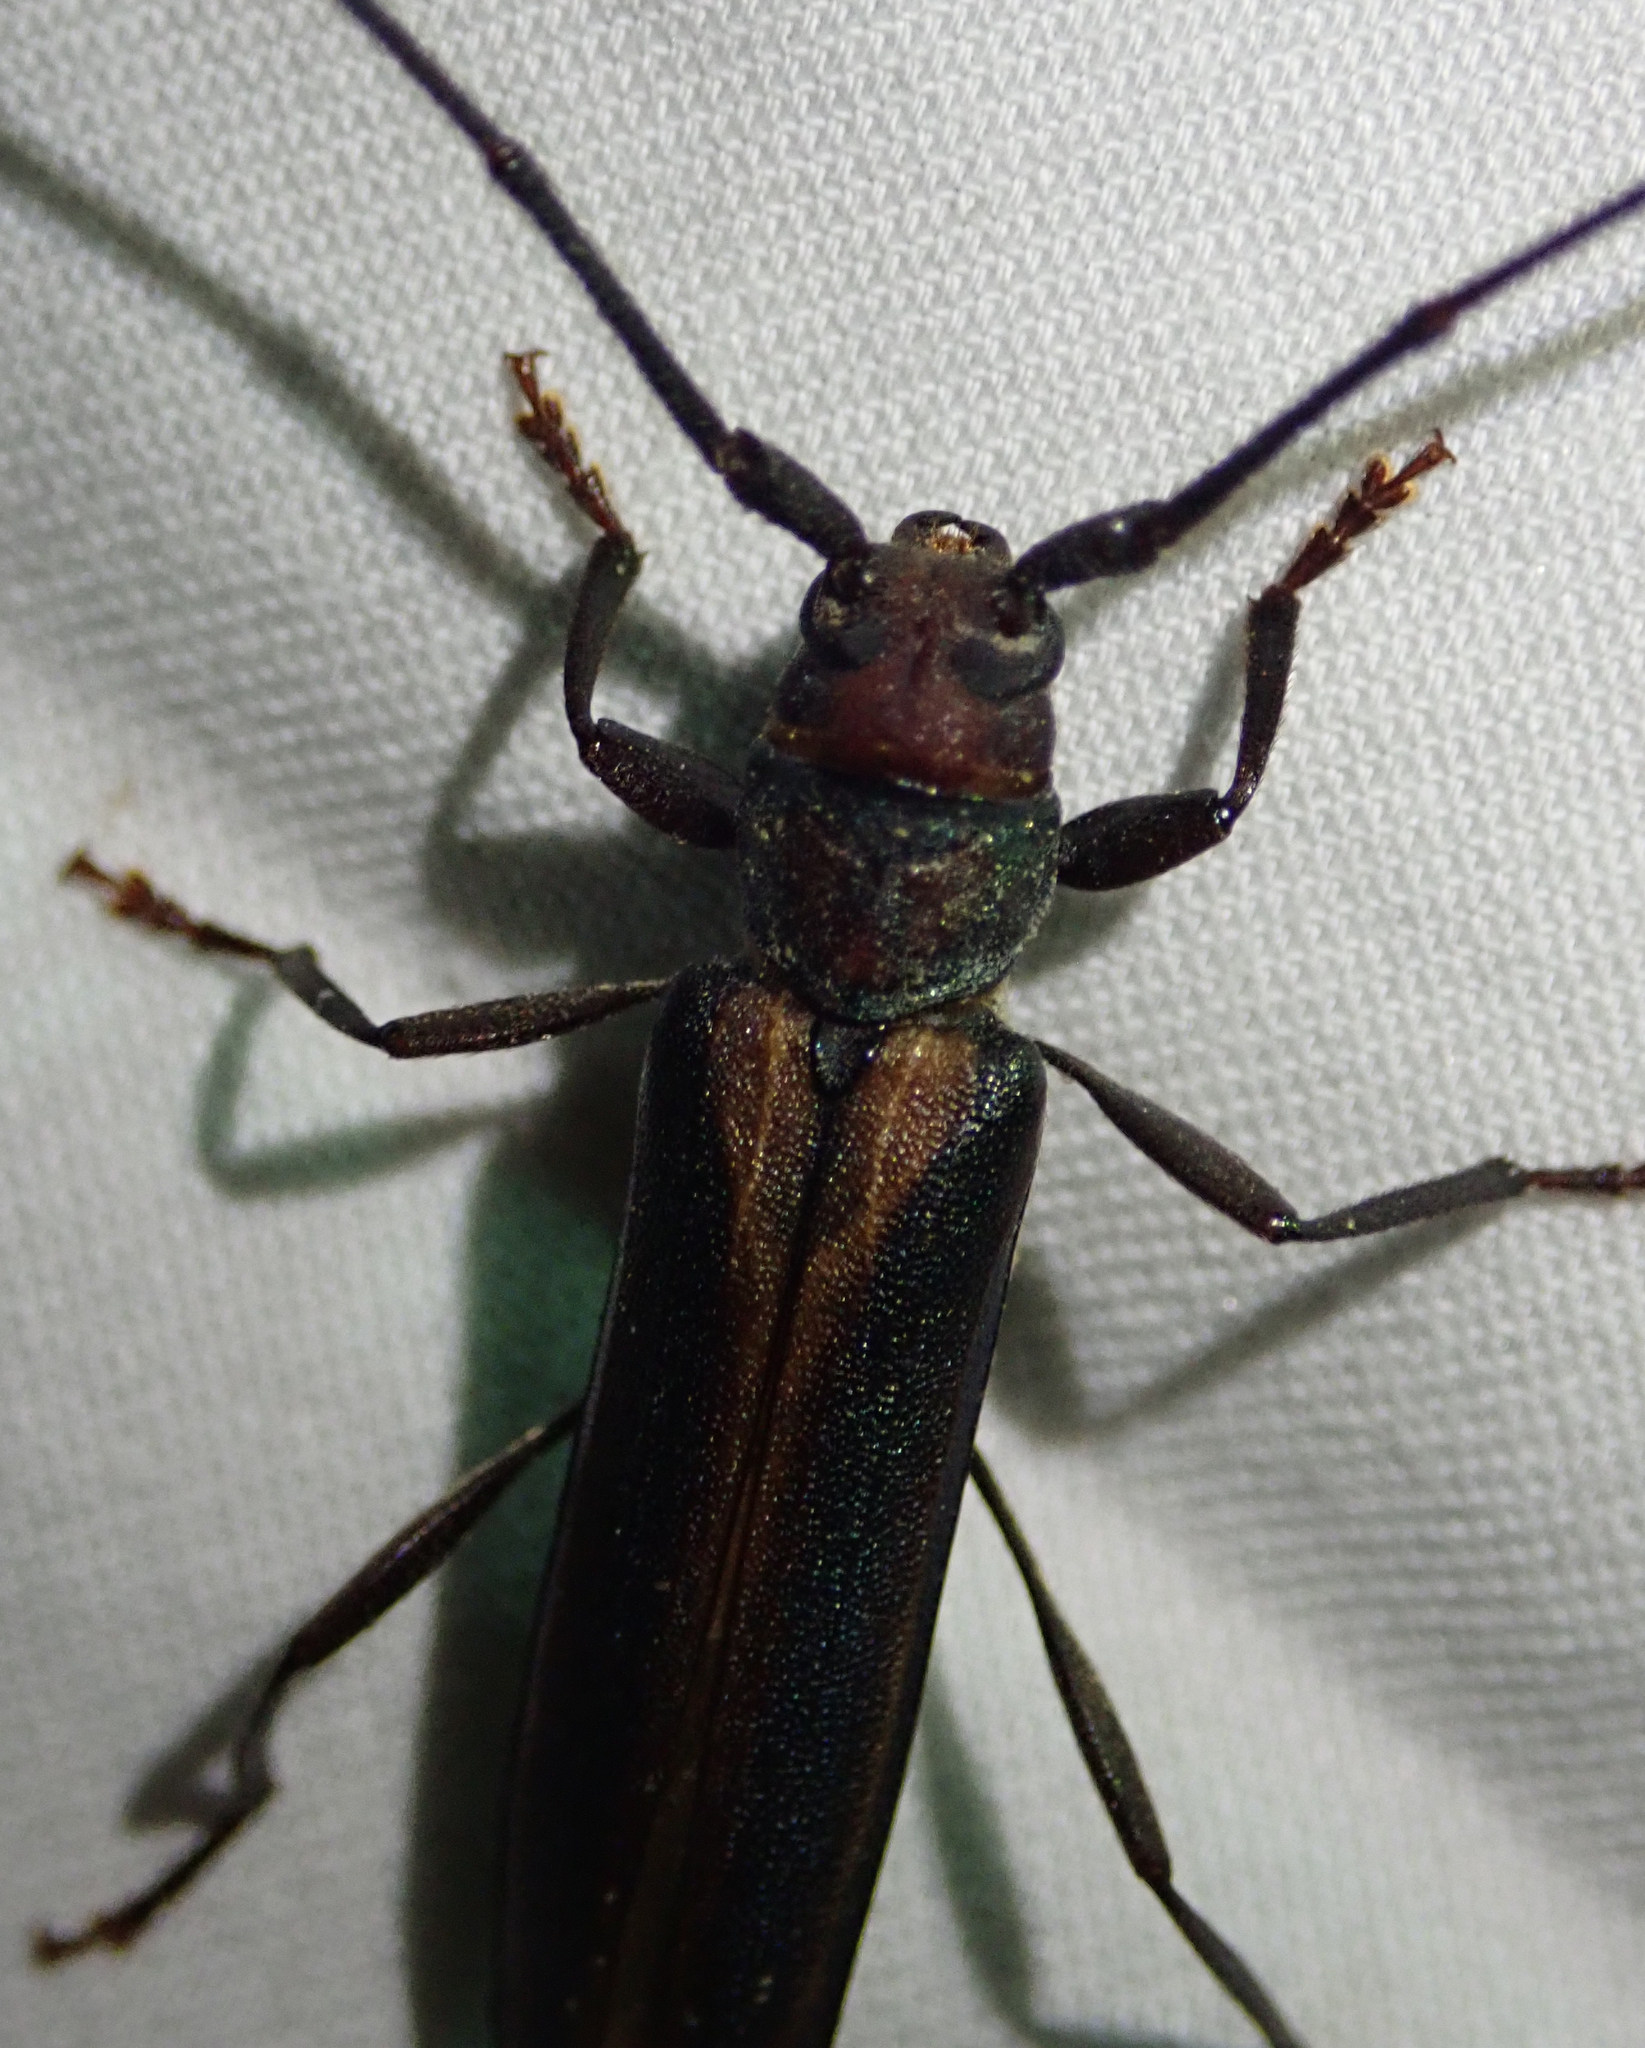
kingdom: Animalia
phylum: Arthropoda
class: Insecta
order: Coleoptera
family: Cerambycidae
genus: Xystrocera
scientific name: Xystrocera dispar
